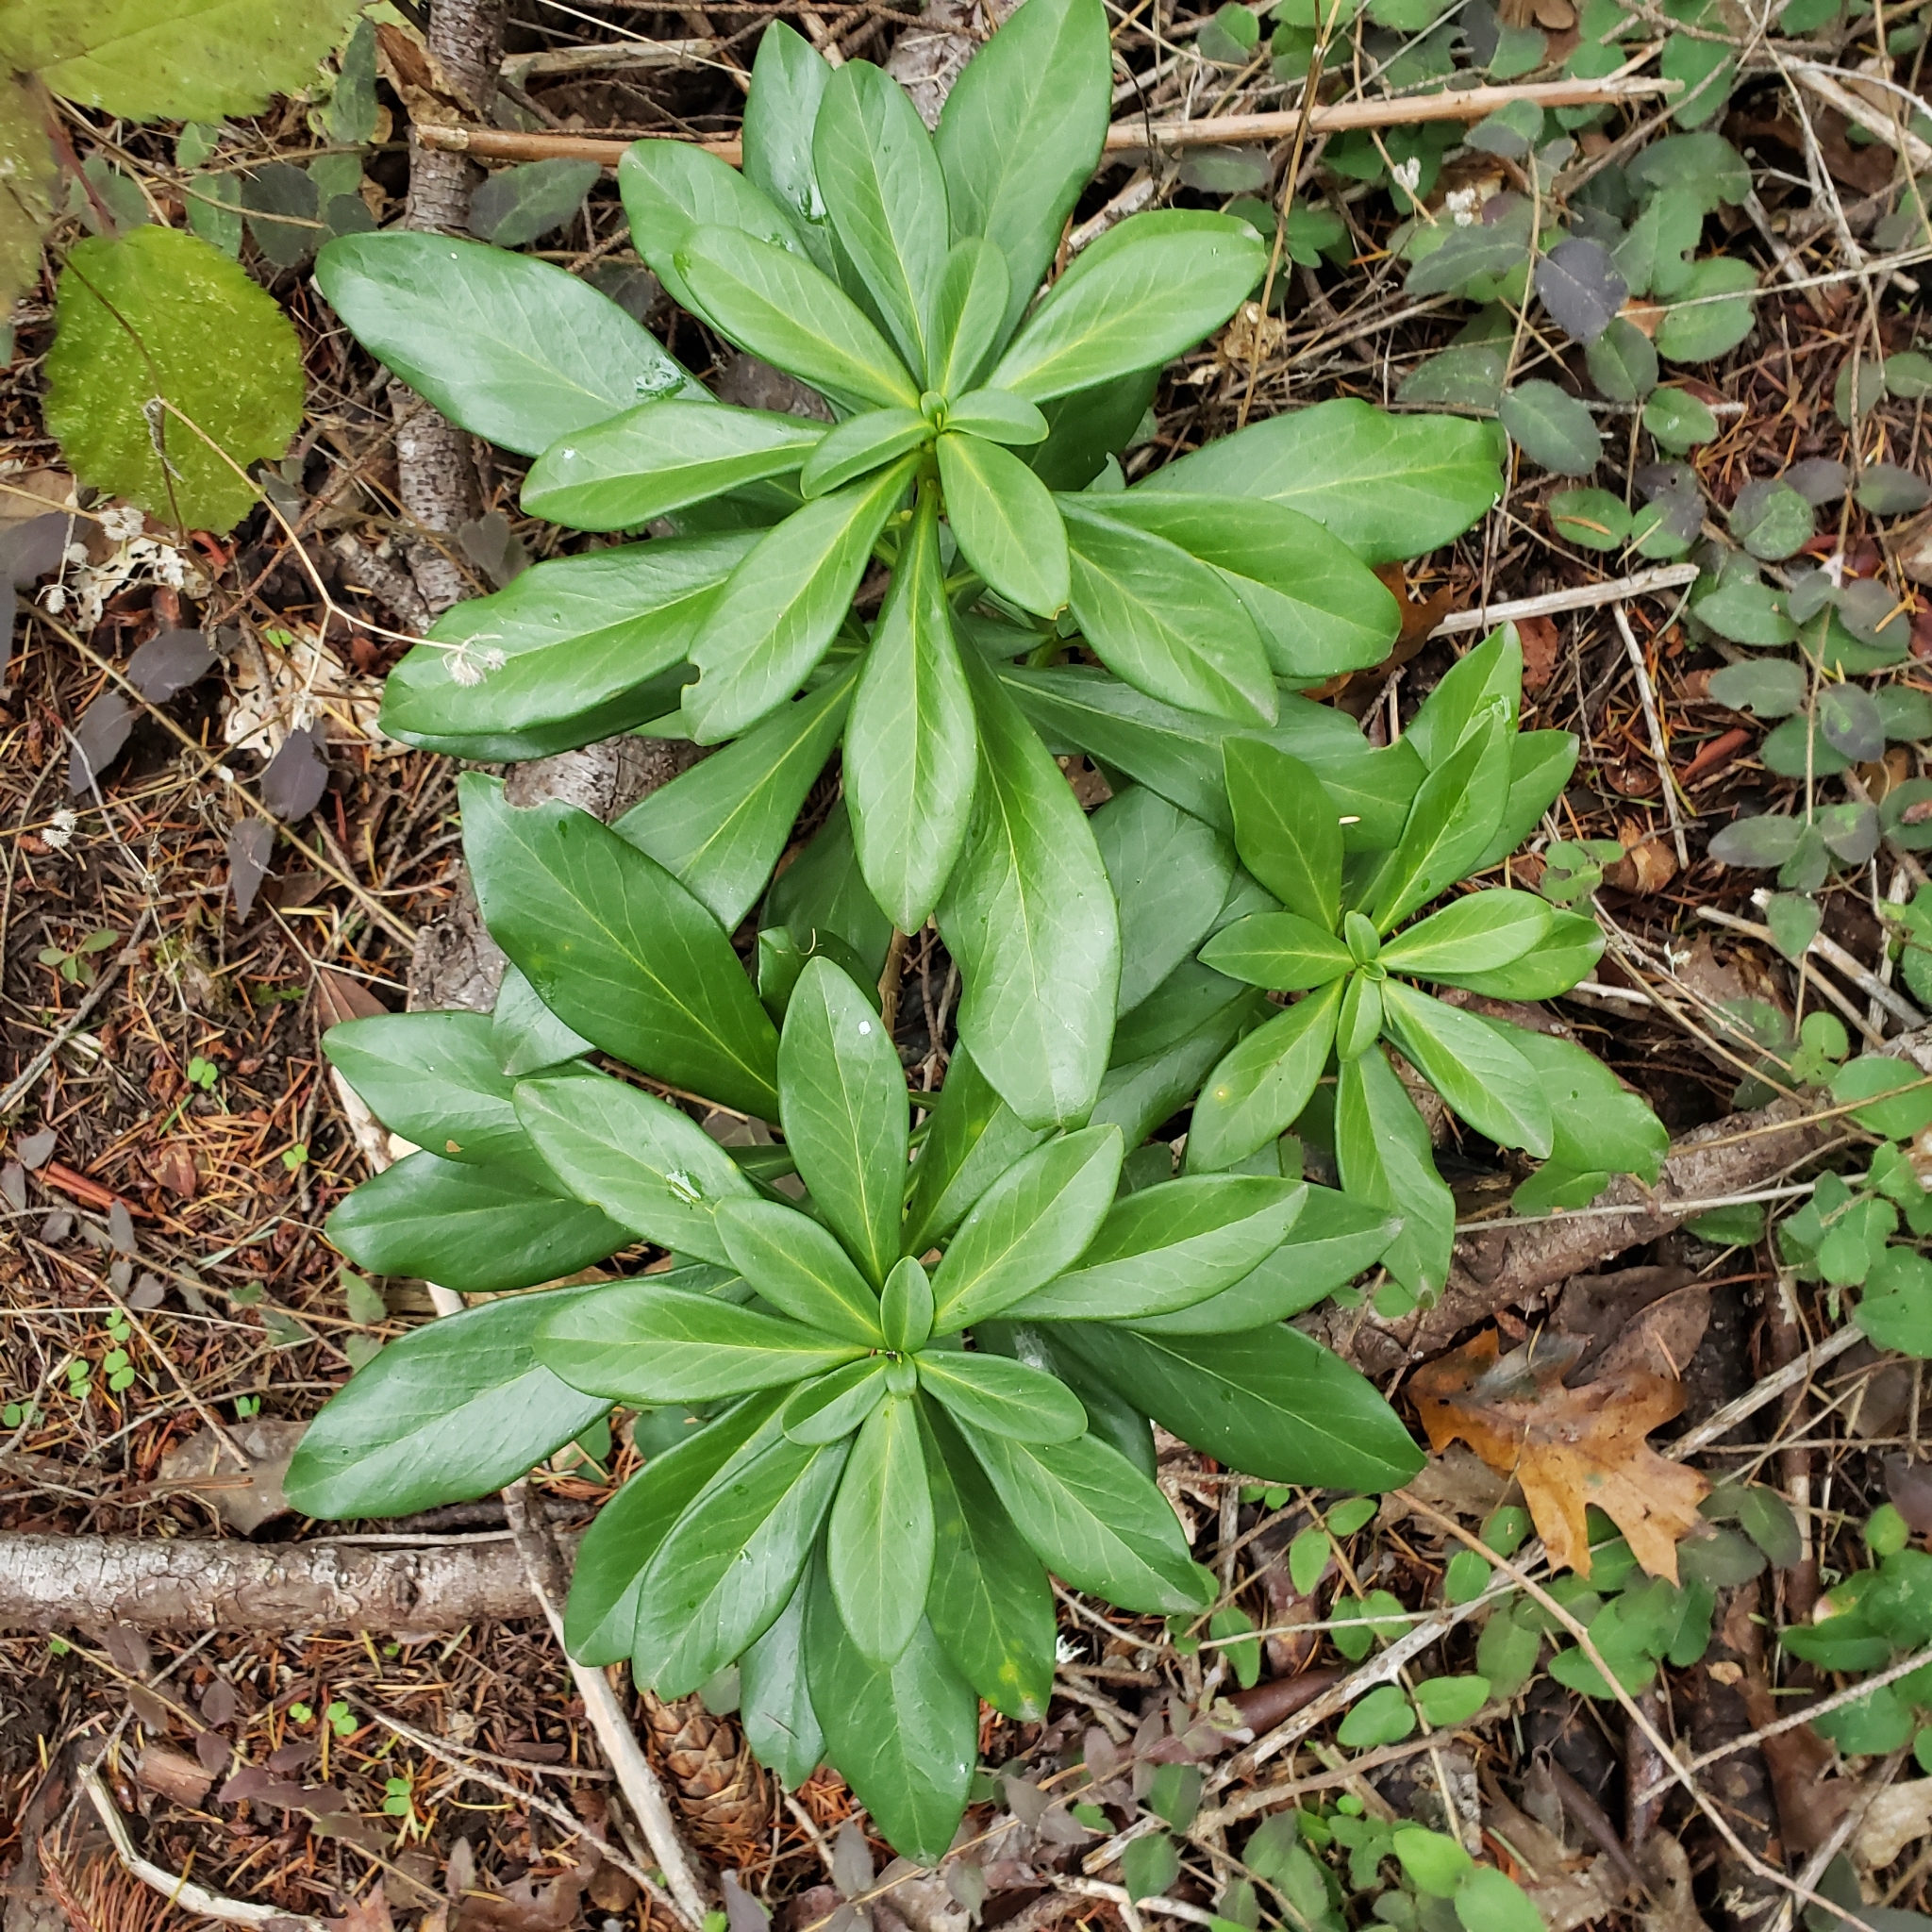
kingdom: Plantae
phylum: Tracheophyta
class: Magnoliopsida
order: Malvales
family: Thymelaeaceae
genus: Daphne
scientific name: Daphne laureola
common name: Spurge-laurel
